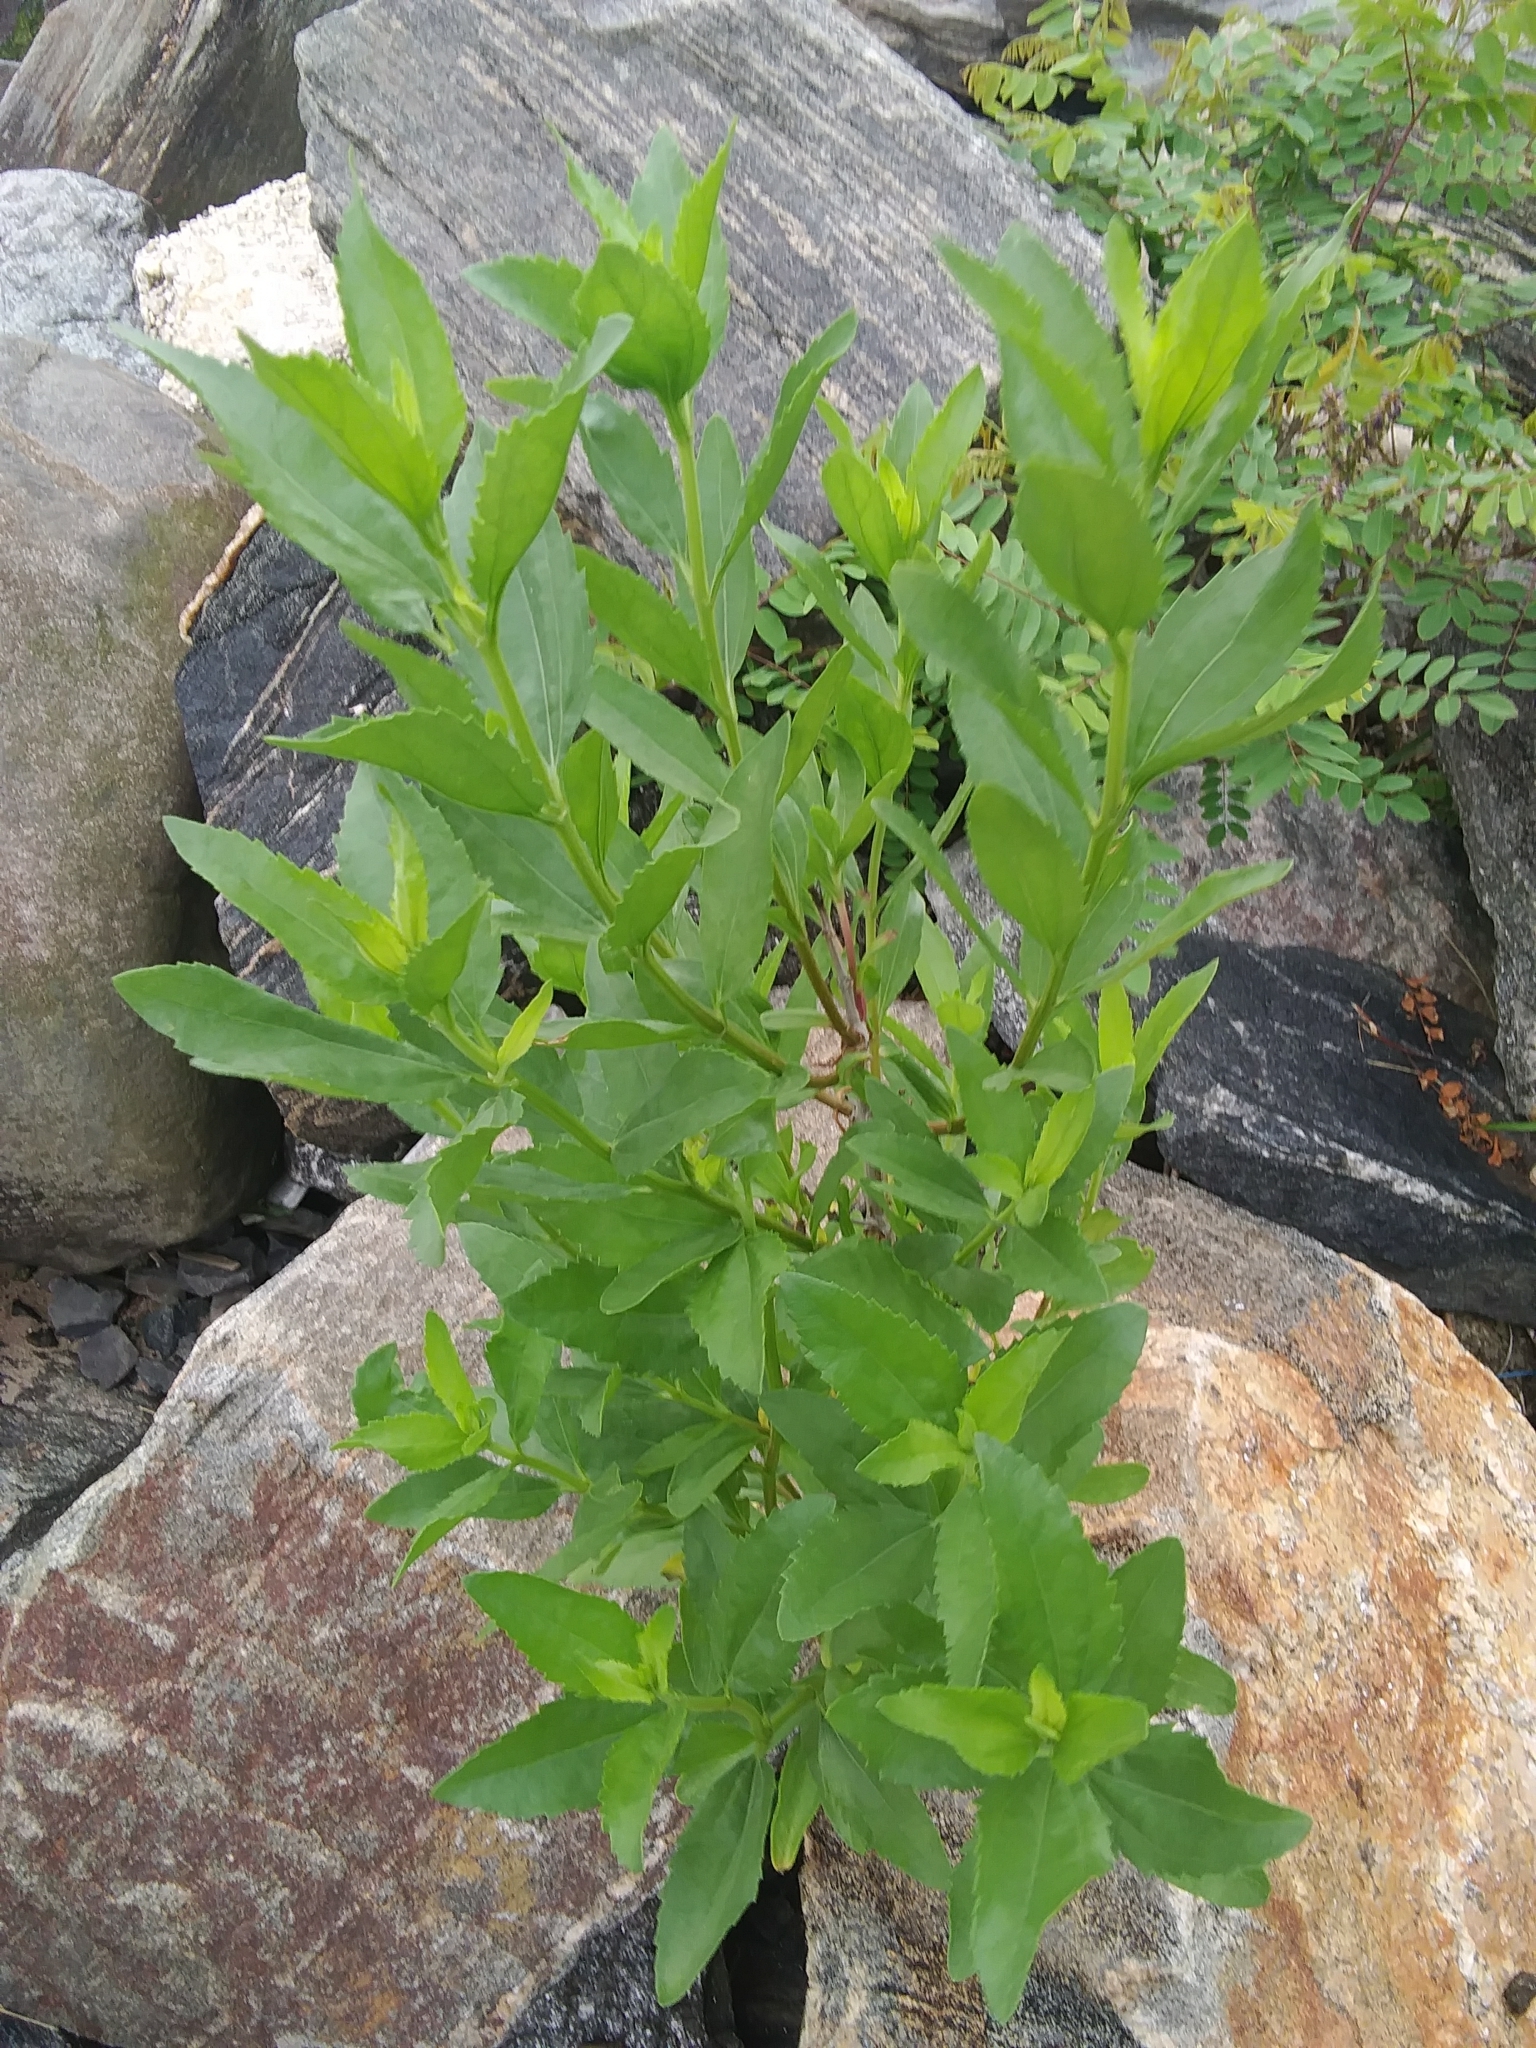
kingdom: Plantae
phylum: Tracheophyta
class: Magnoliopsida
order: Asterales
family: Asteraceae
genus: Iva
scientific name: Iva frutescens
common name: Big-leaved marsh-elder
